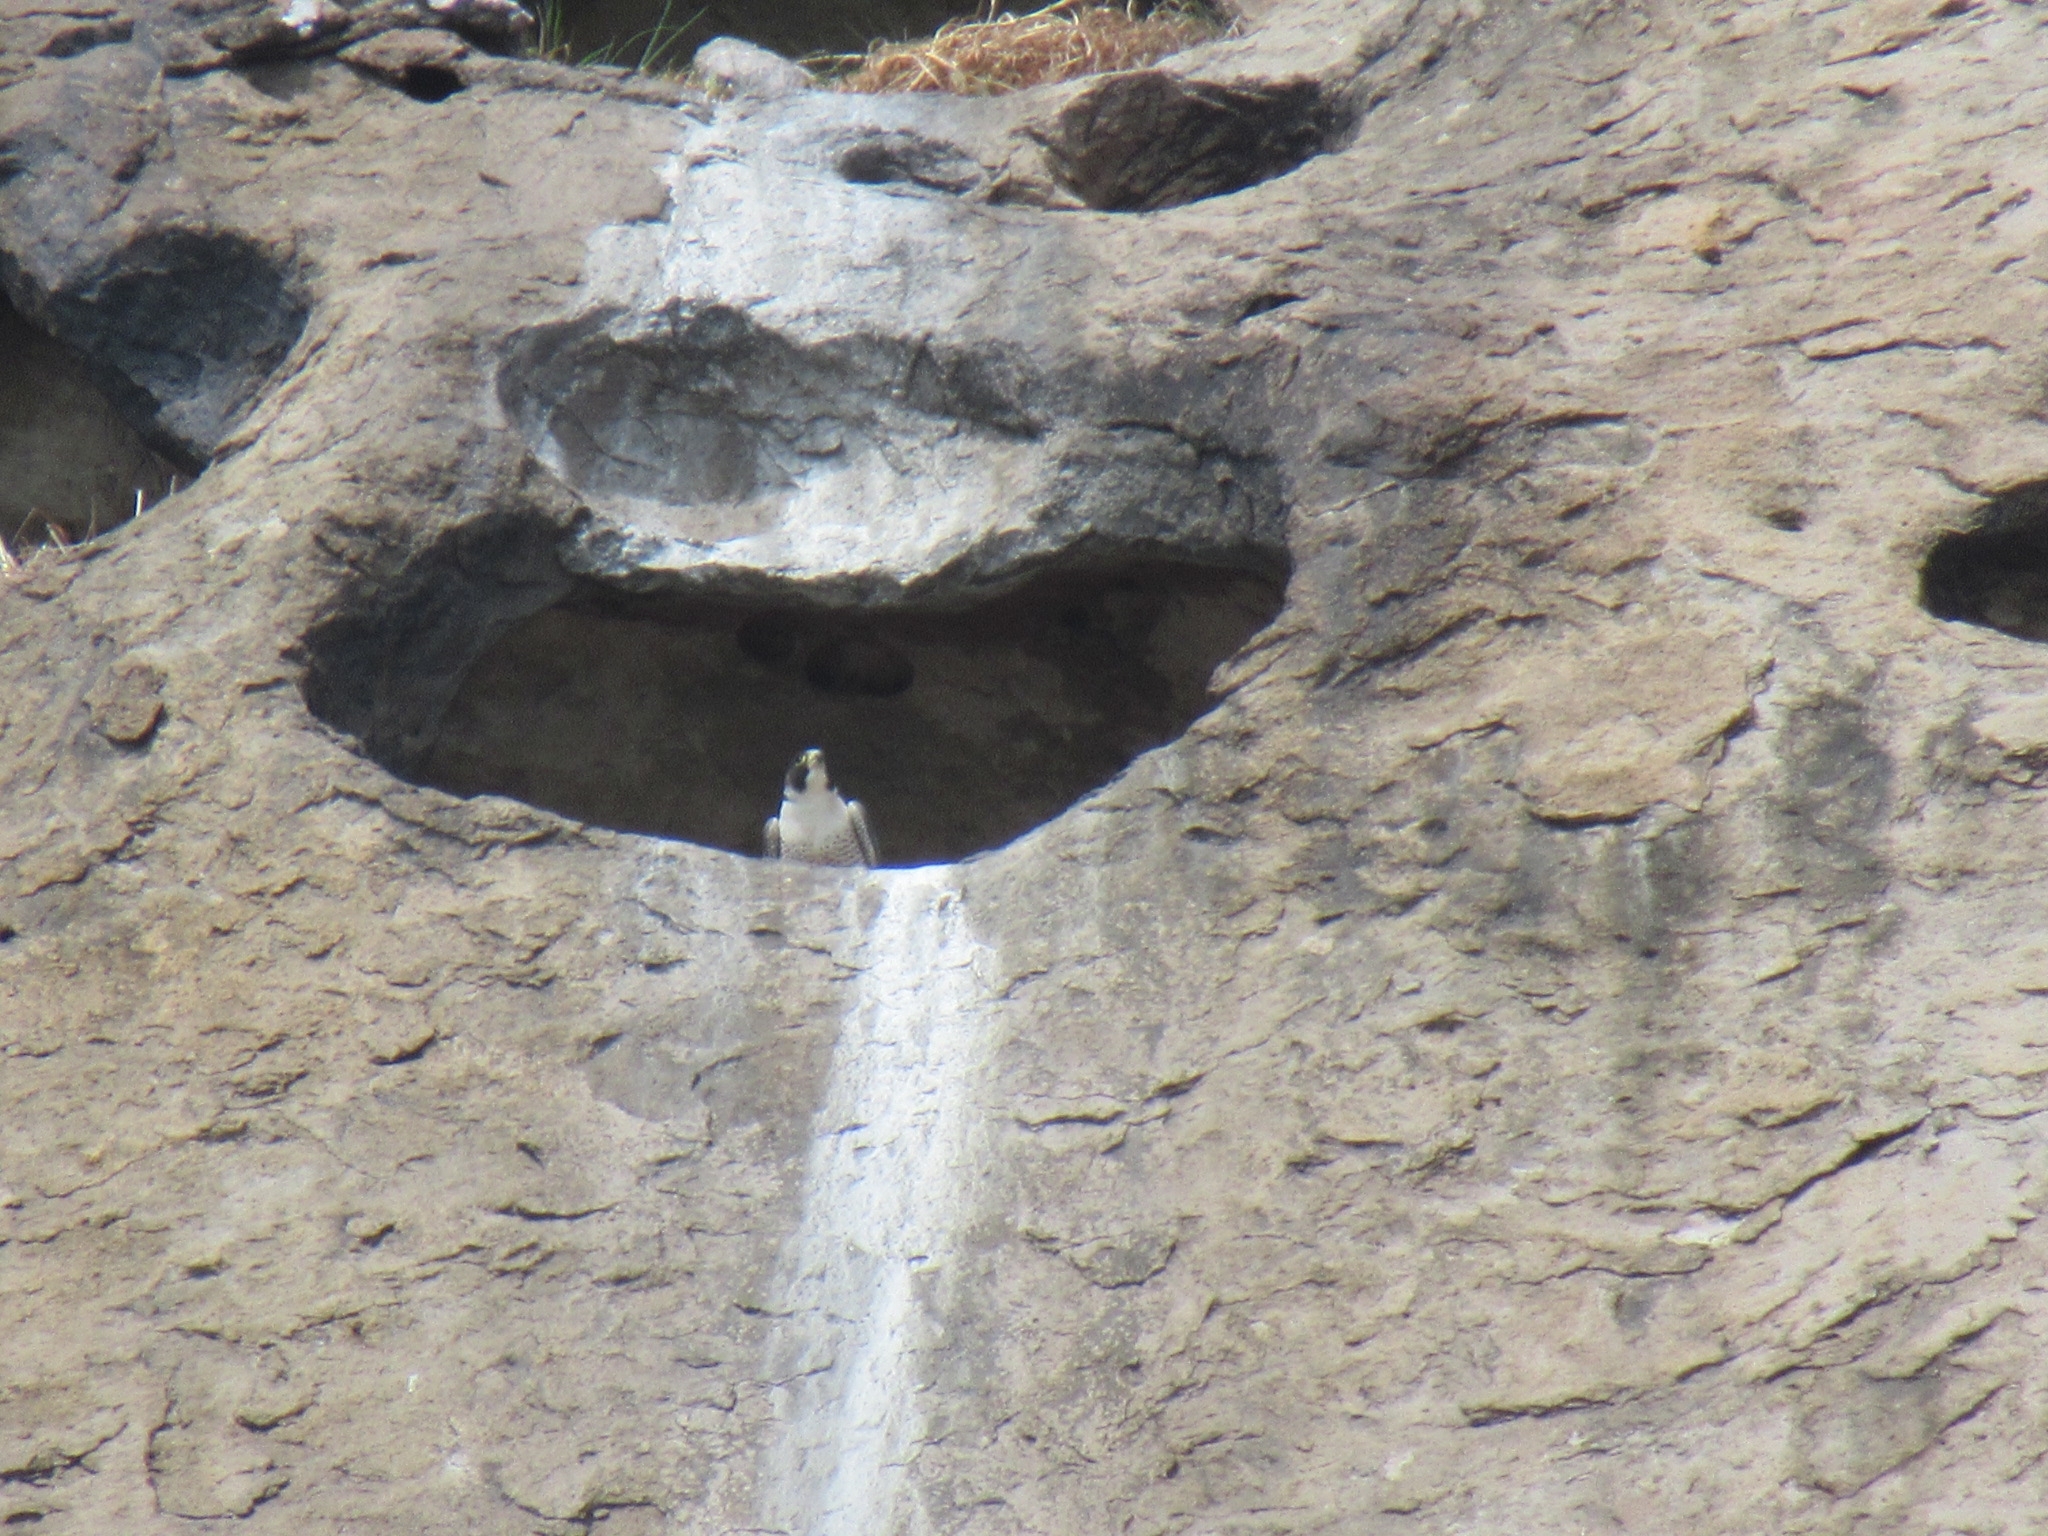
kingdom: Animalia
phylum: Chordata
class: Aves
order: Falconiformes
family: Falconidae
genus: Falco
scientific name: Falco peregrinus
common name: Peregrine falcon
